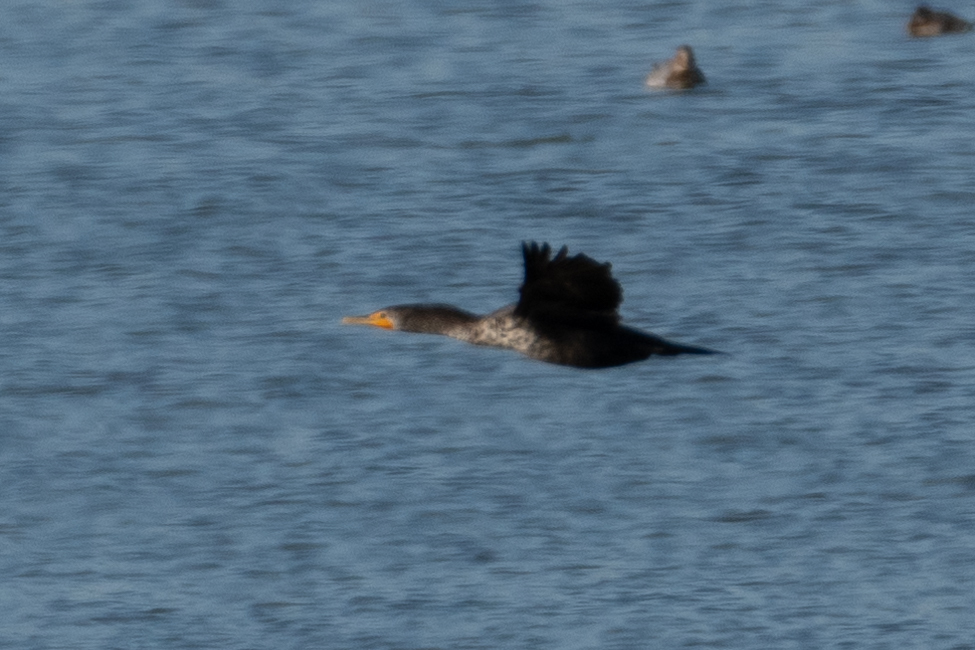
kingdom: Animalia
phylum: Chordata
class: Aves
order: Suliformes
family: Phalacrocoracidae
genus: Phalacrocorax
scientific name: Phalacrocorax auritus
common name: Double-crested cormorant
